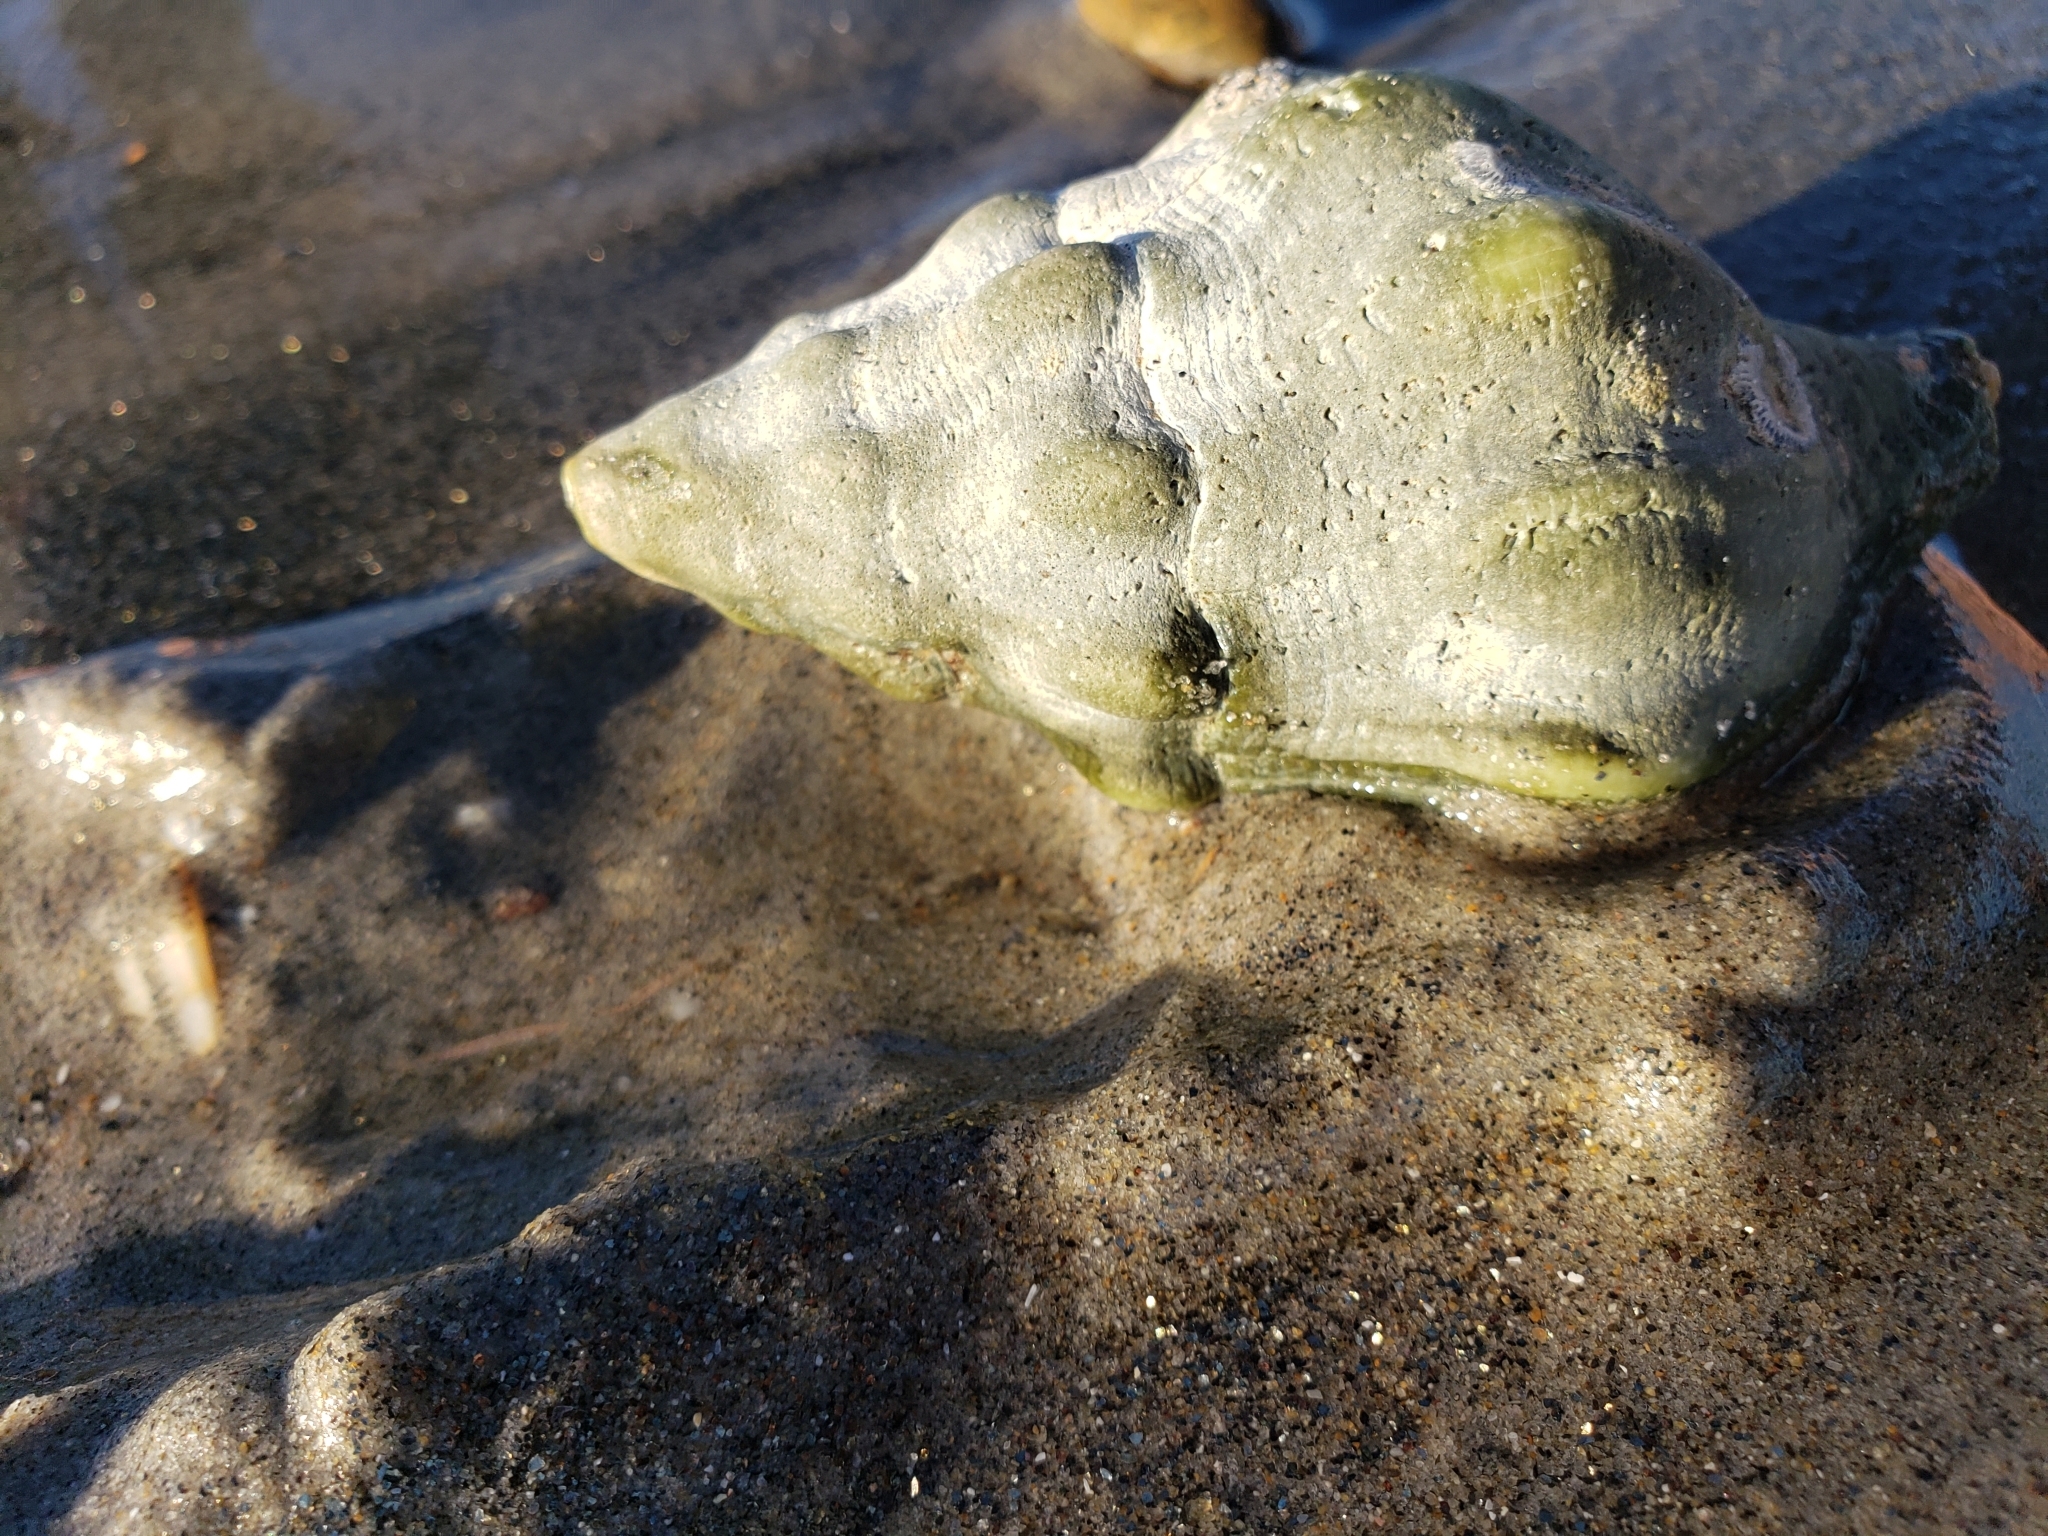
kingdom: Animalia
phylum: Mollusca
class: Gastropoda
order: Neogastropoda
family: Austrosiphonidae
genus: Kelletia
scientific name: Kelletia kelletii
